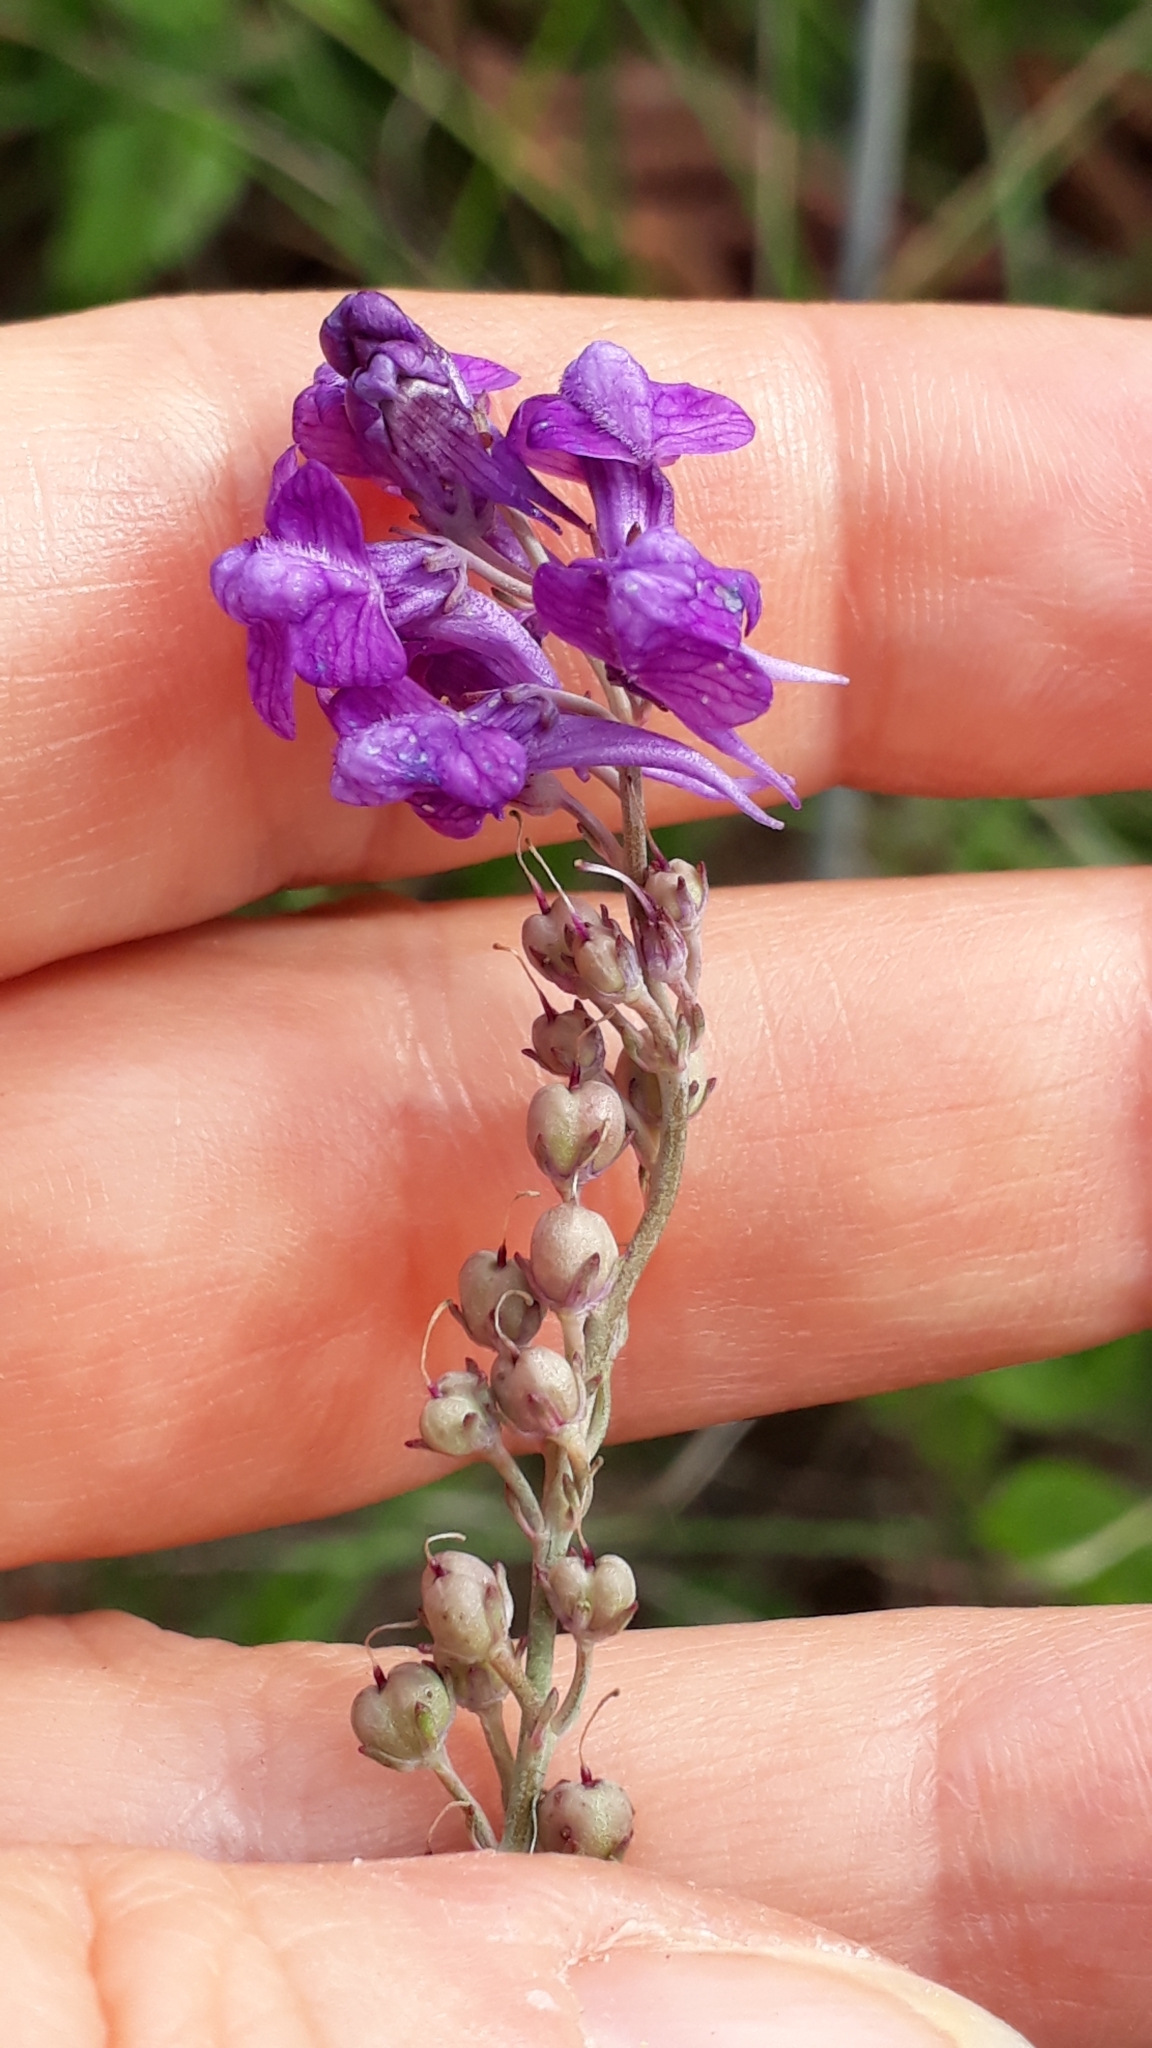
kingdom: Plantae
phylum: Tracheophyta
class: Magnoliopsida
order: Lamiales
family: Plantaginaceae
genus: Linaria
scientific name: Linaria purpurea
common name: Purple toadflax
